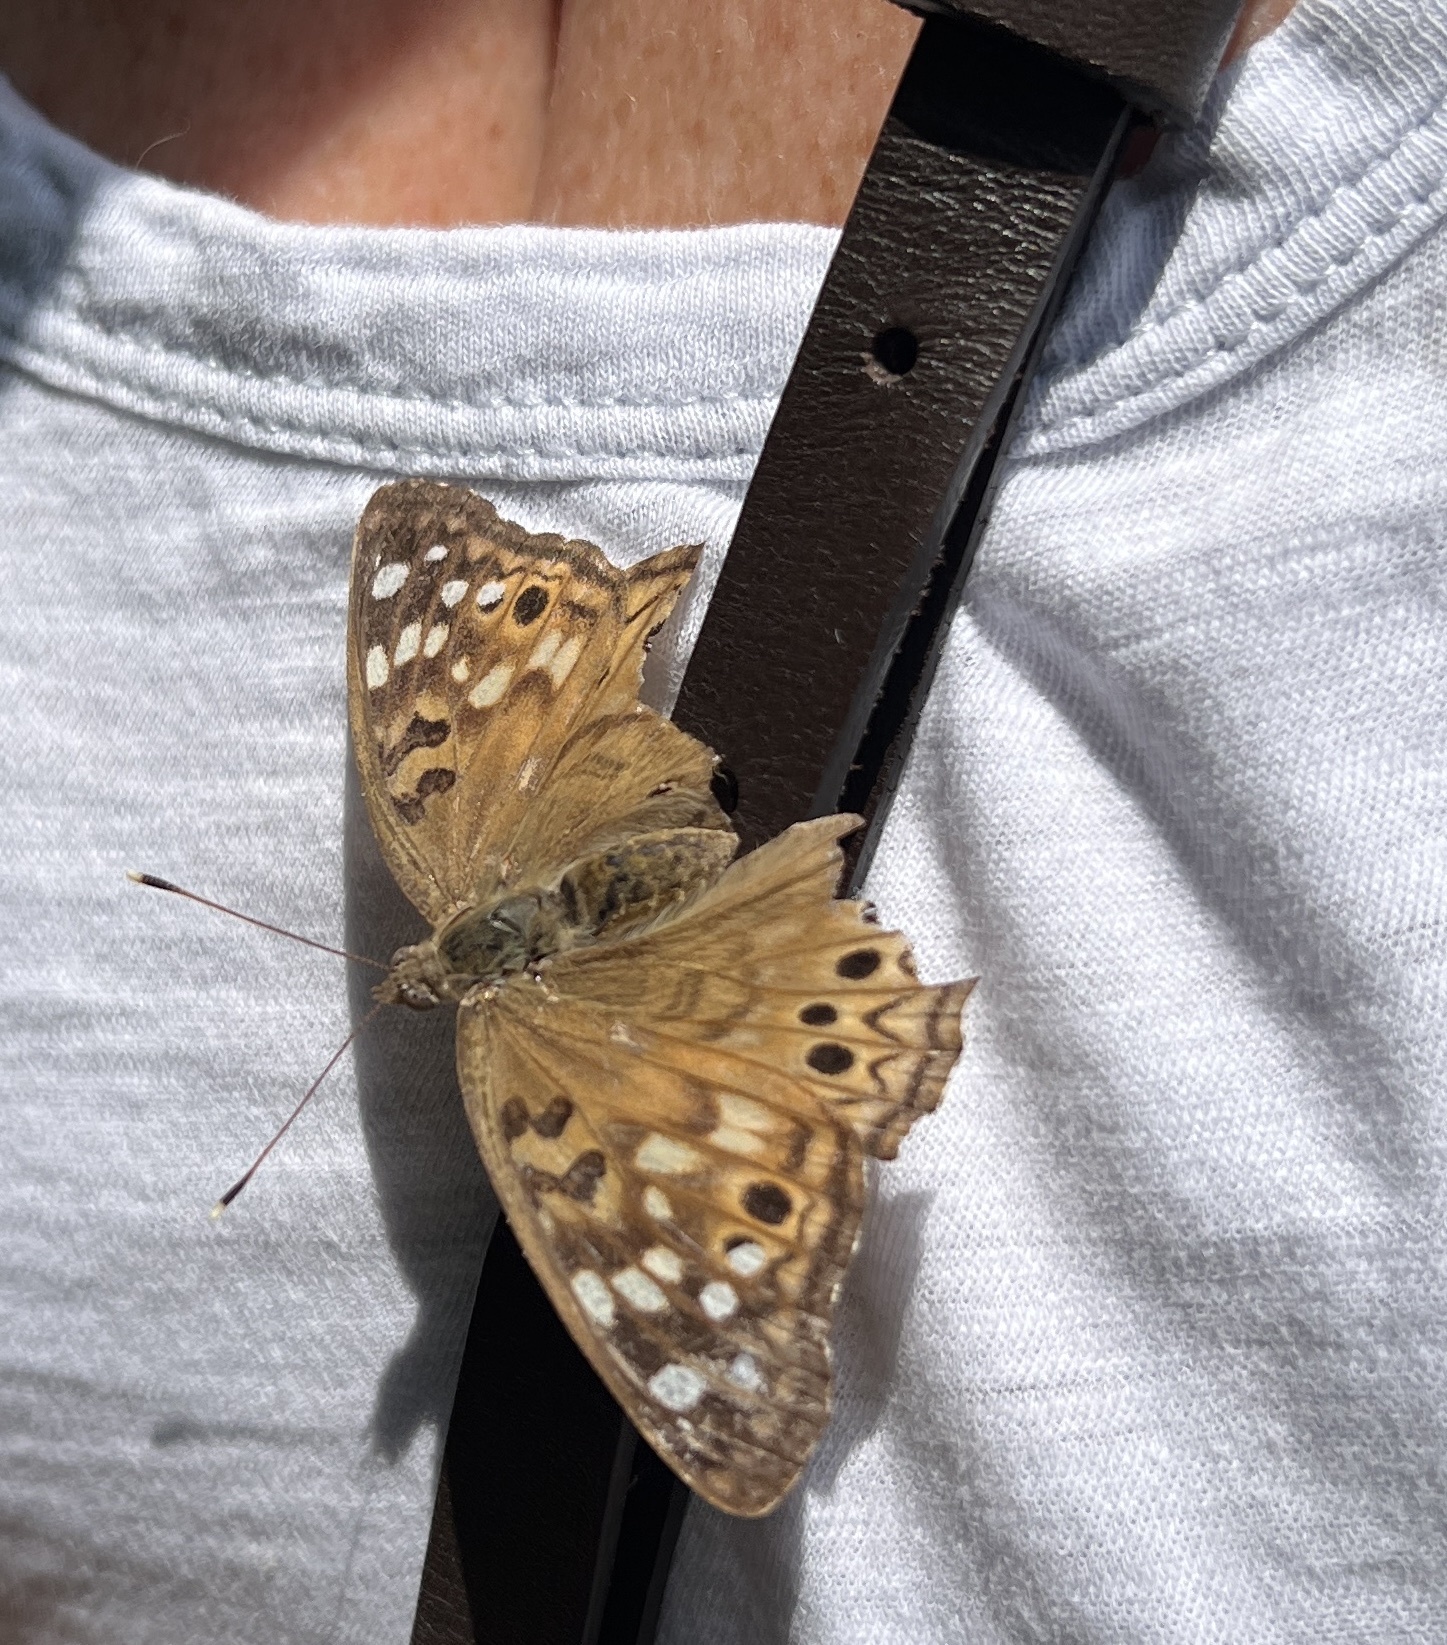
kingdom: Animalia
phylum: Arthropoda
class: Insecta
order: Lepidoptera
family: Nymphalidae
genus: Asterocampa
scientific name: Asterocampa celtis
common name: Hackberry emperor
